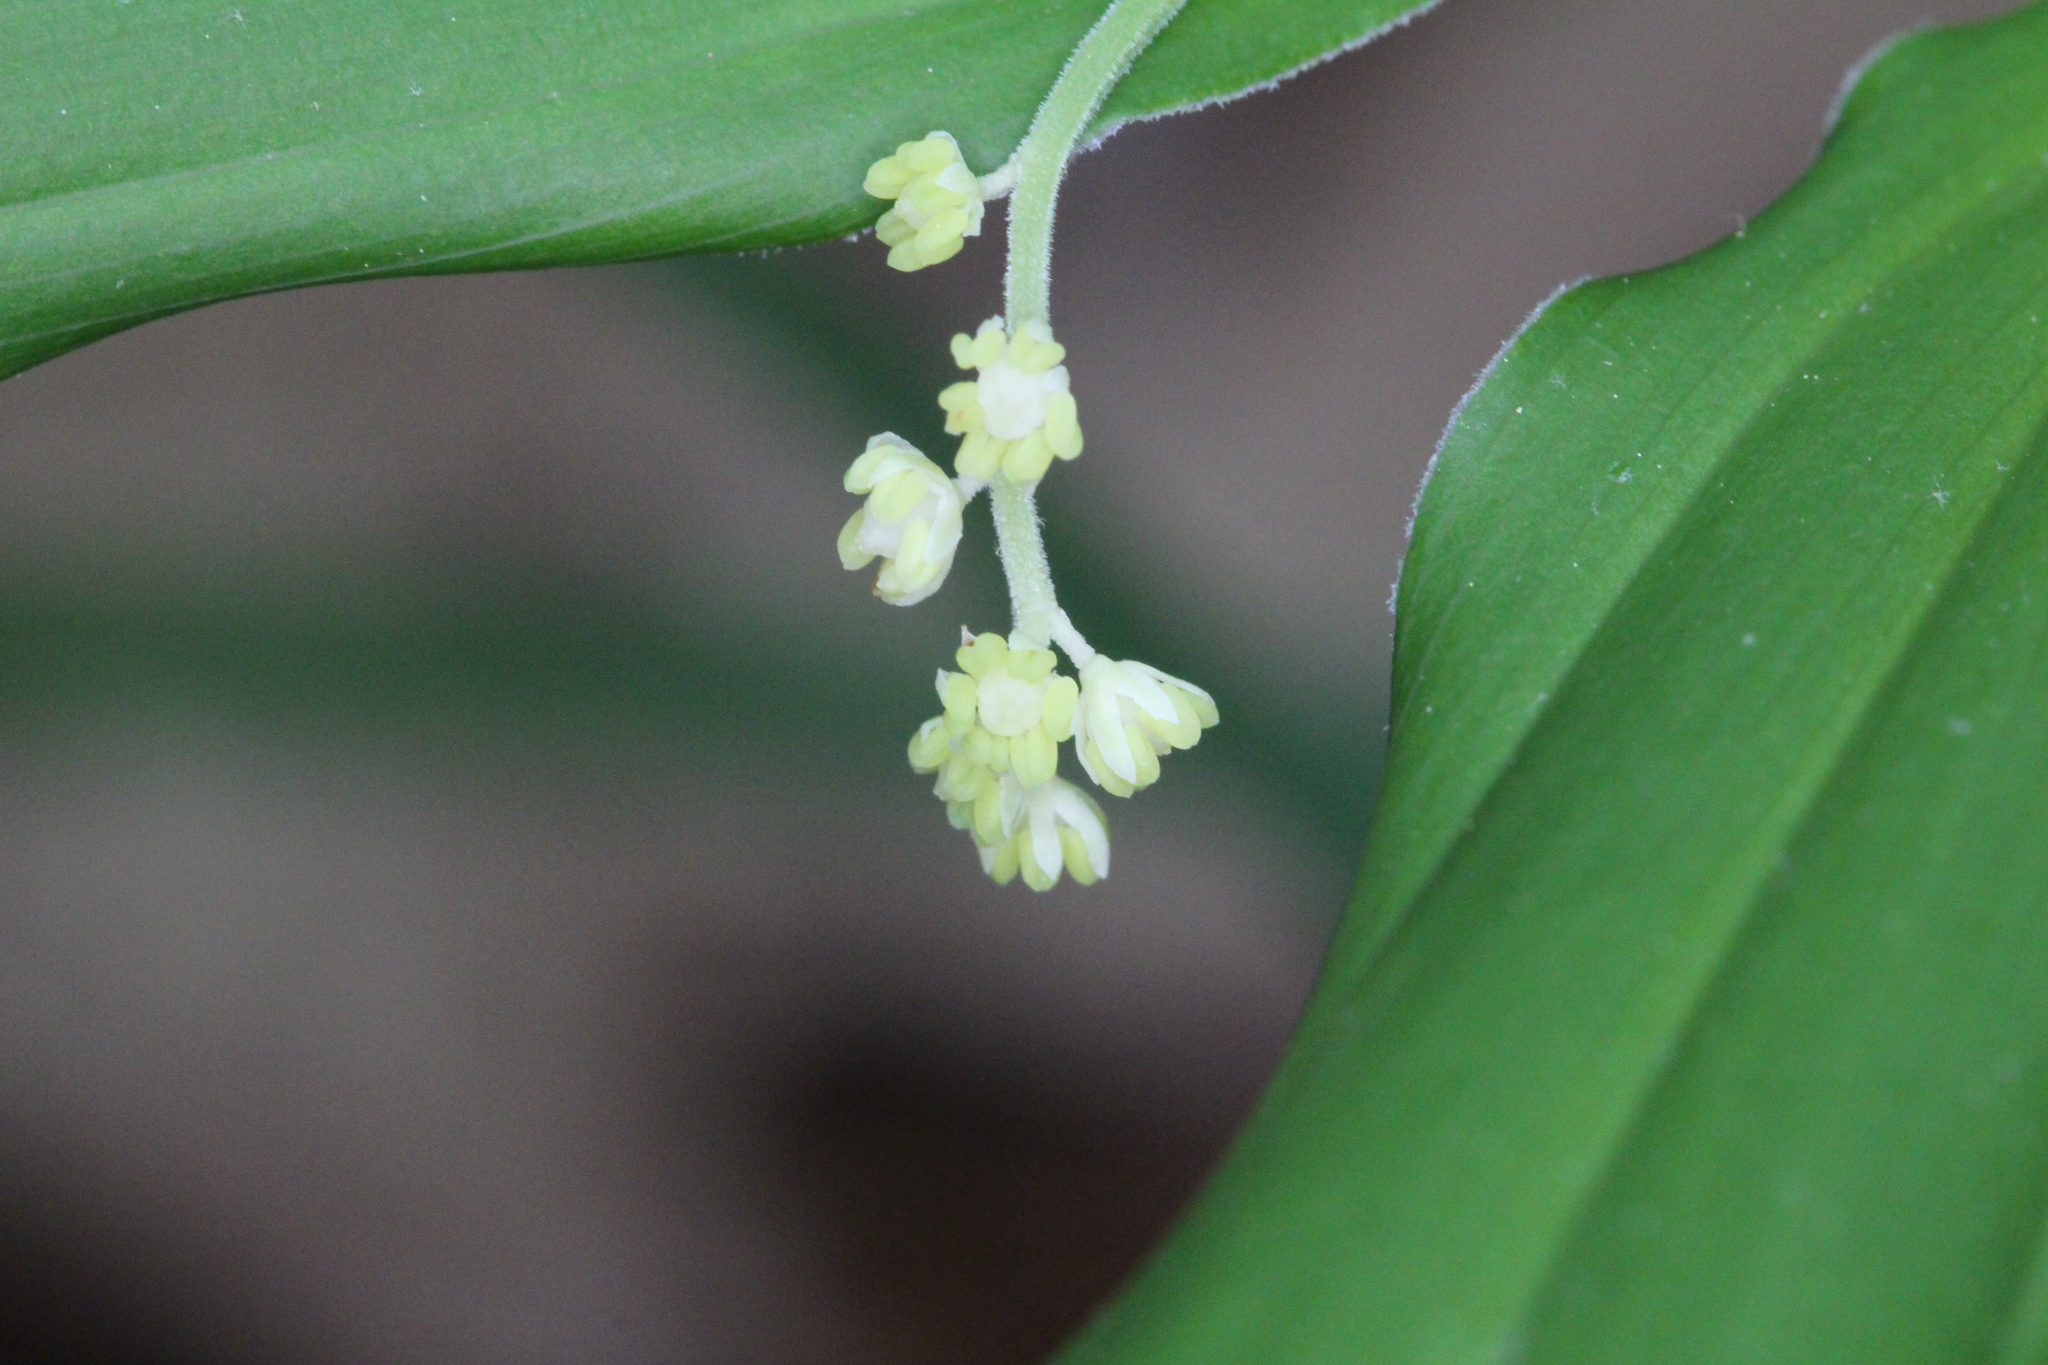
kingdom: Plantae
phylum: Tracheophyta
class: Liliopsida
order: Asparagales
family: Asparagaceae
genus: Maianthemum
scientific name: Maianthemum racemosum
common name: False spikenard
